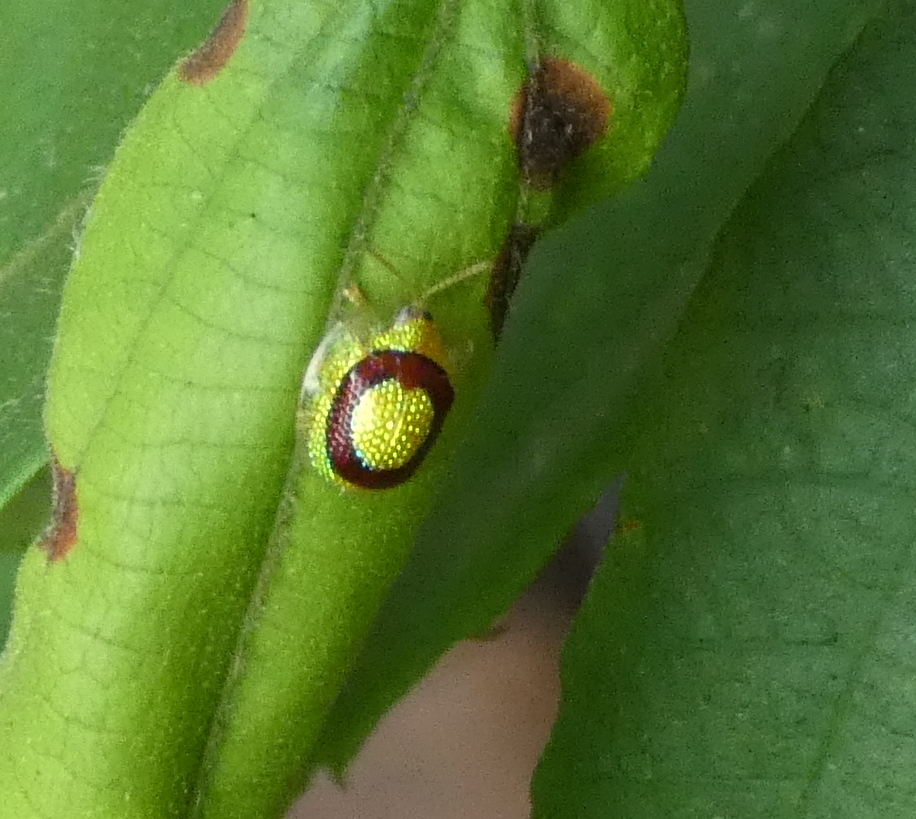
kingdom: Animalia
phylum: Arthropoda
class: Insecta
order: Coleoptera
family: Chrysomelidae
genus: Charidotis
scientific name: Charidotis abrupta
